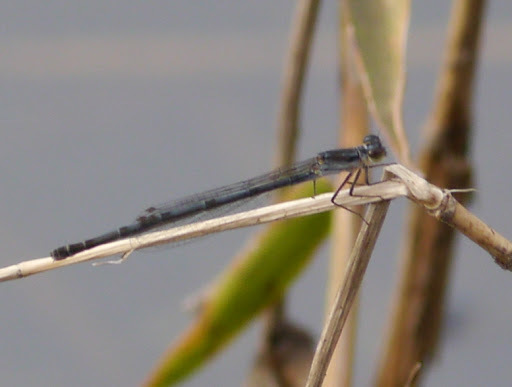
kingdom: Animalia
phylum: Arthropoda
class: Insecta
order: Odonata
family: Coenagrionidae
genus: Ischnura
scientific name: Ischnura posita
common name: Fragile forktail
